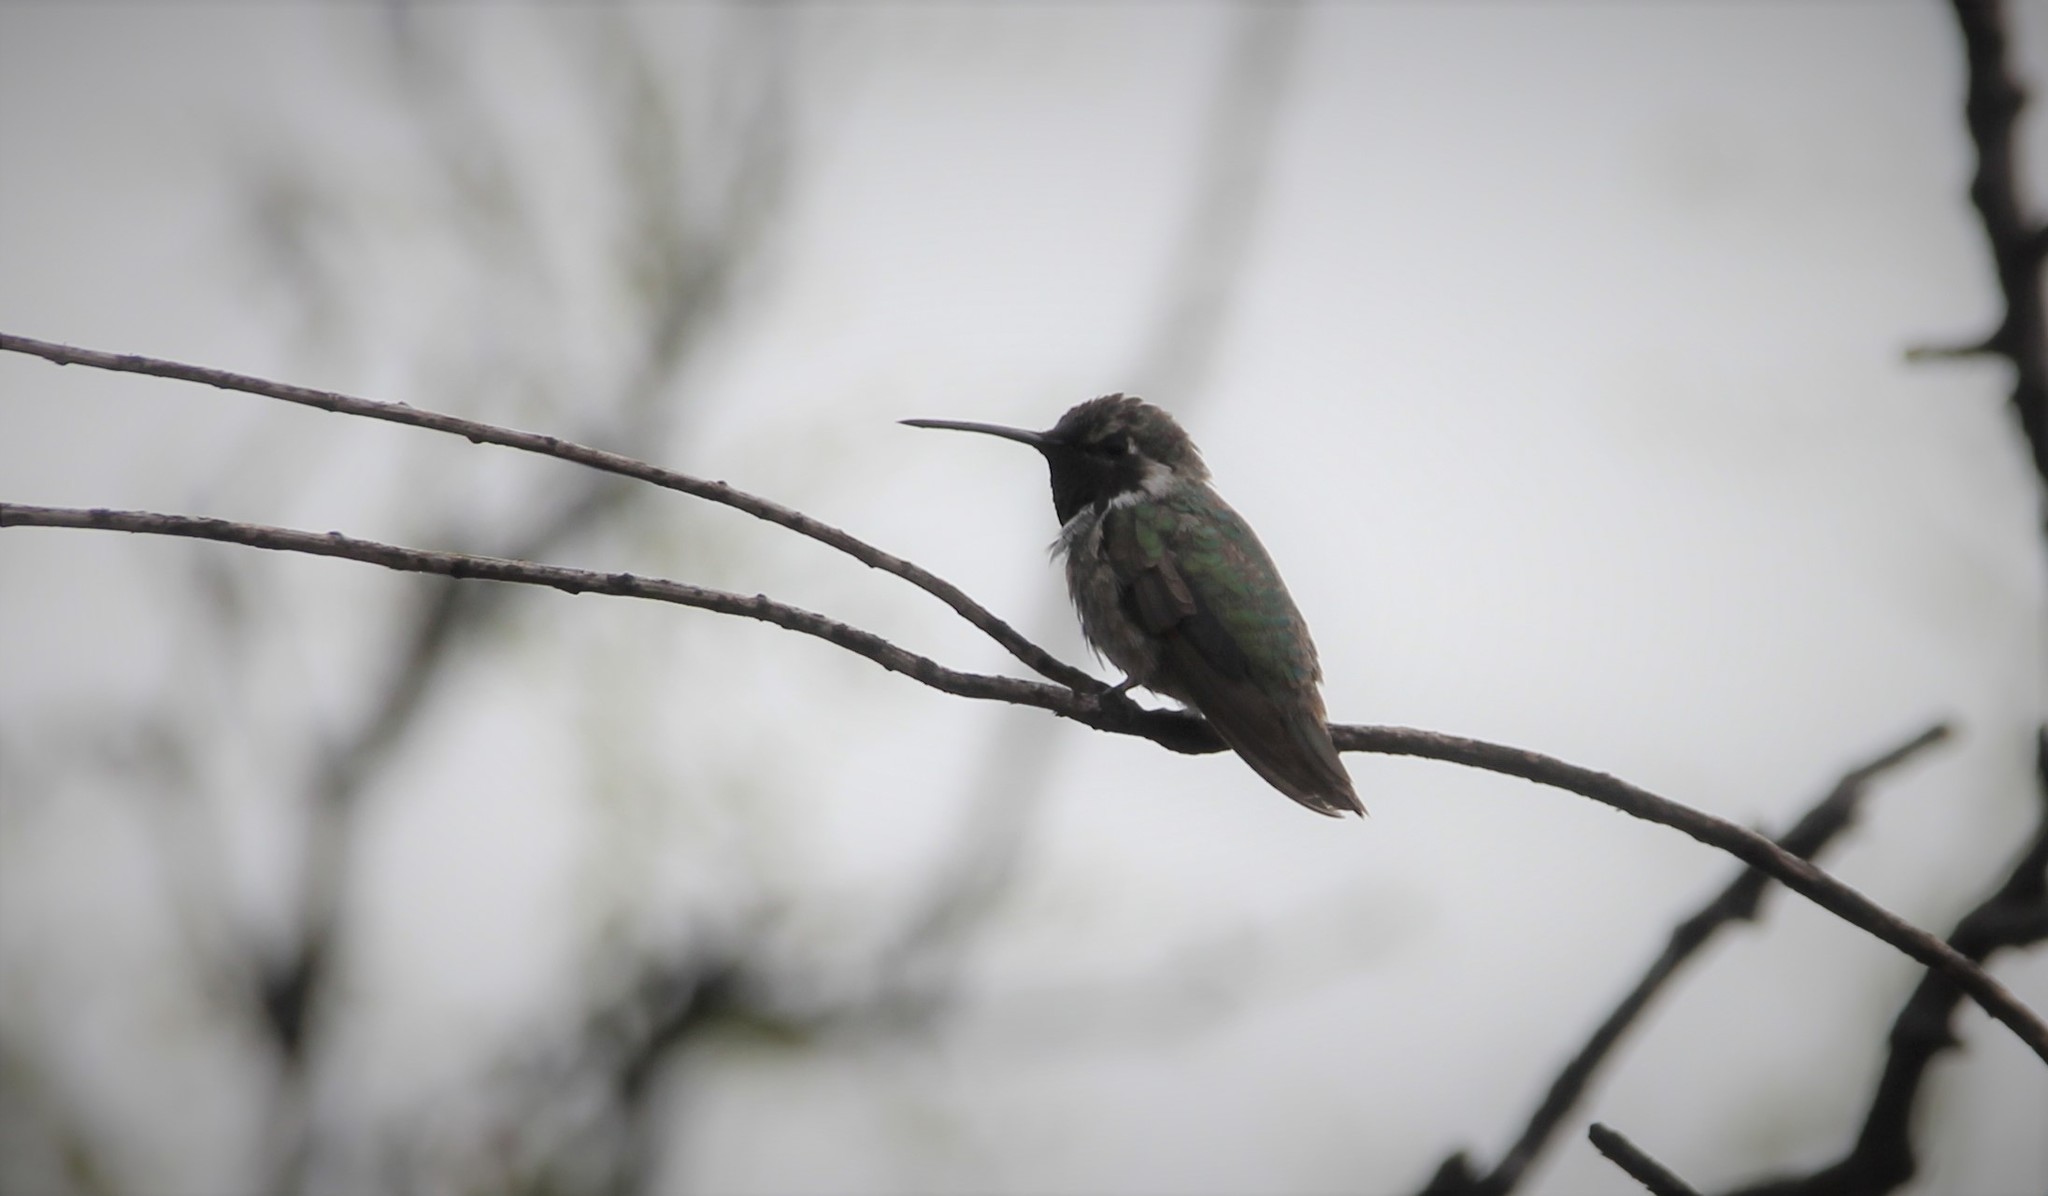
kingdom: Animalia
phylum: Chordata
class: Aves
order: Apodiformes
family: Trochilidae
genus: Calypte
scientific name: Calypte costae
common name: Costa's hummingbird
